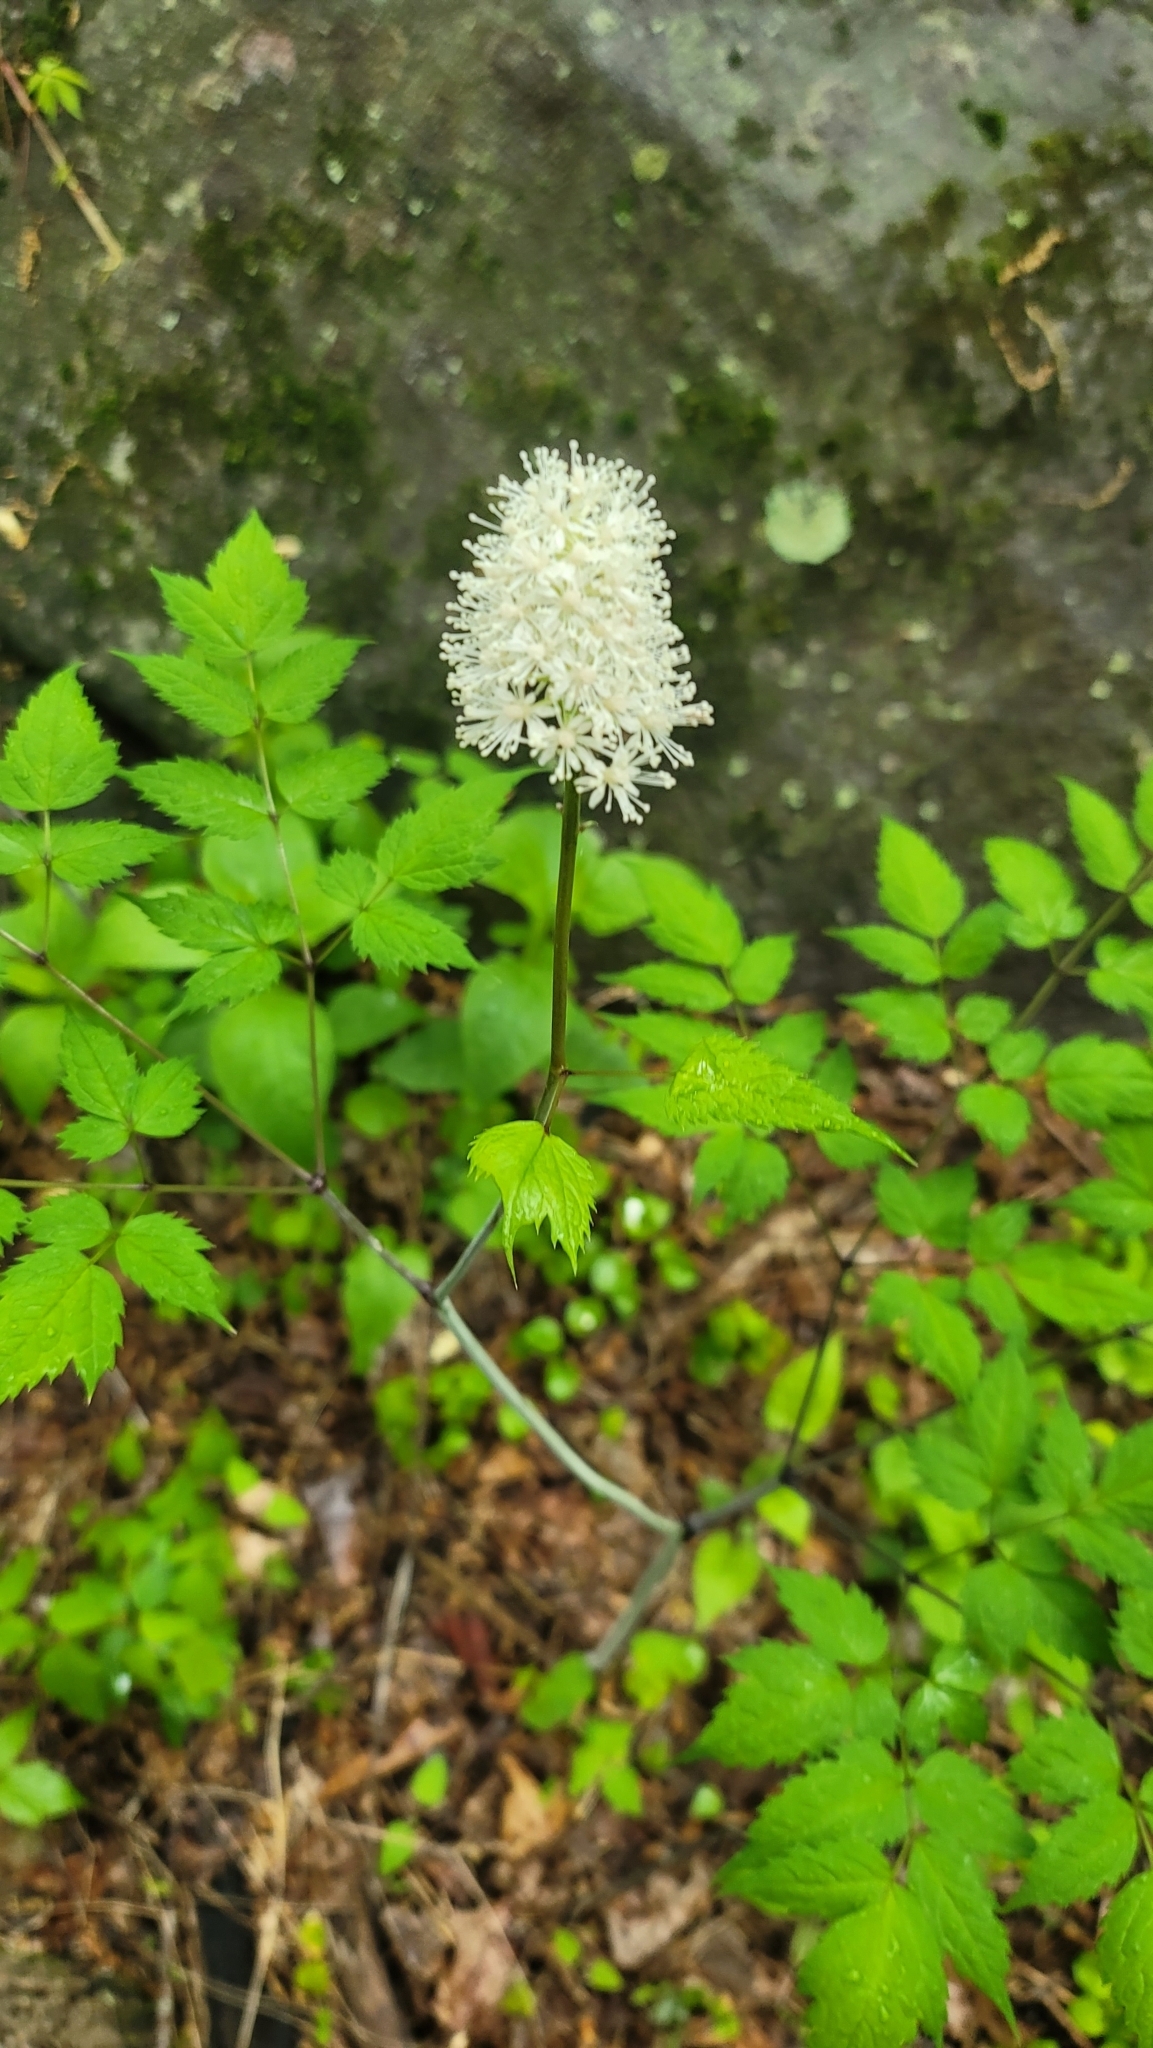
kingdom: Plantae
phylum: Tracheophyta
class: Magnoliopsida
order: Ranunculales
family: Ranunculaceae
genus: Actaea
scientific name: Actaea pachypoda
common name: Doll's-eyes
